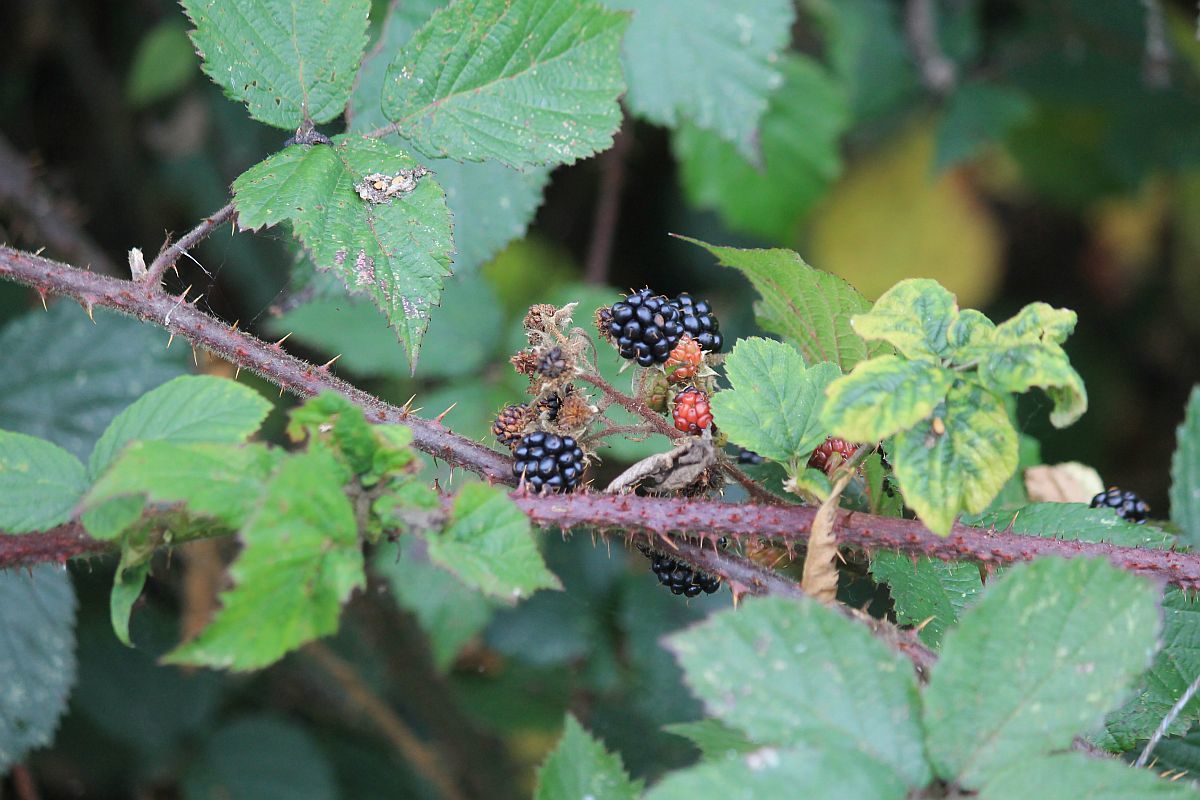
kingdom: Plantae
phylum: Tracheophyta
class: Magnoliopsida
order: Rosales
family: Rosaceae
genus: Rubus
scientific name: Rubus
